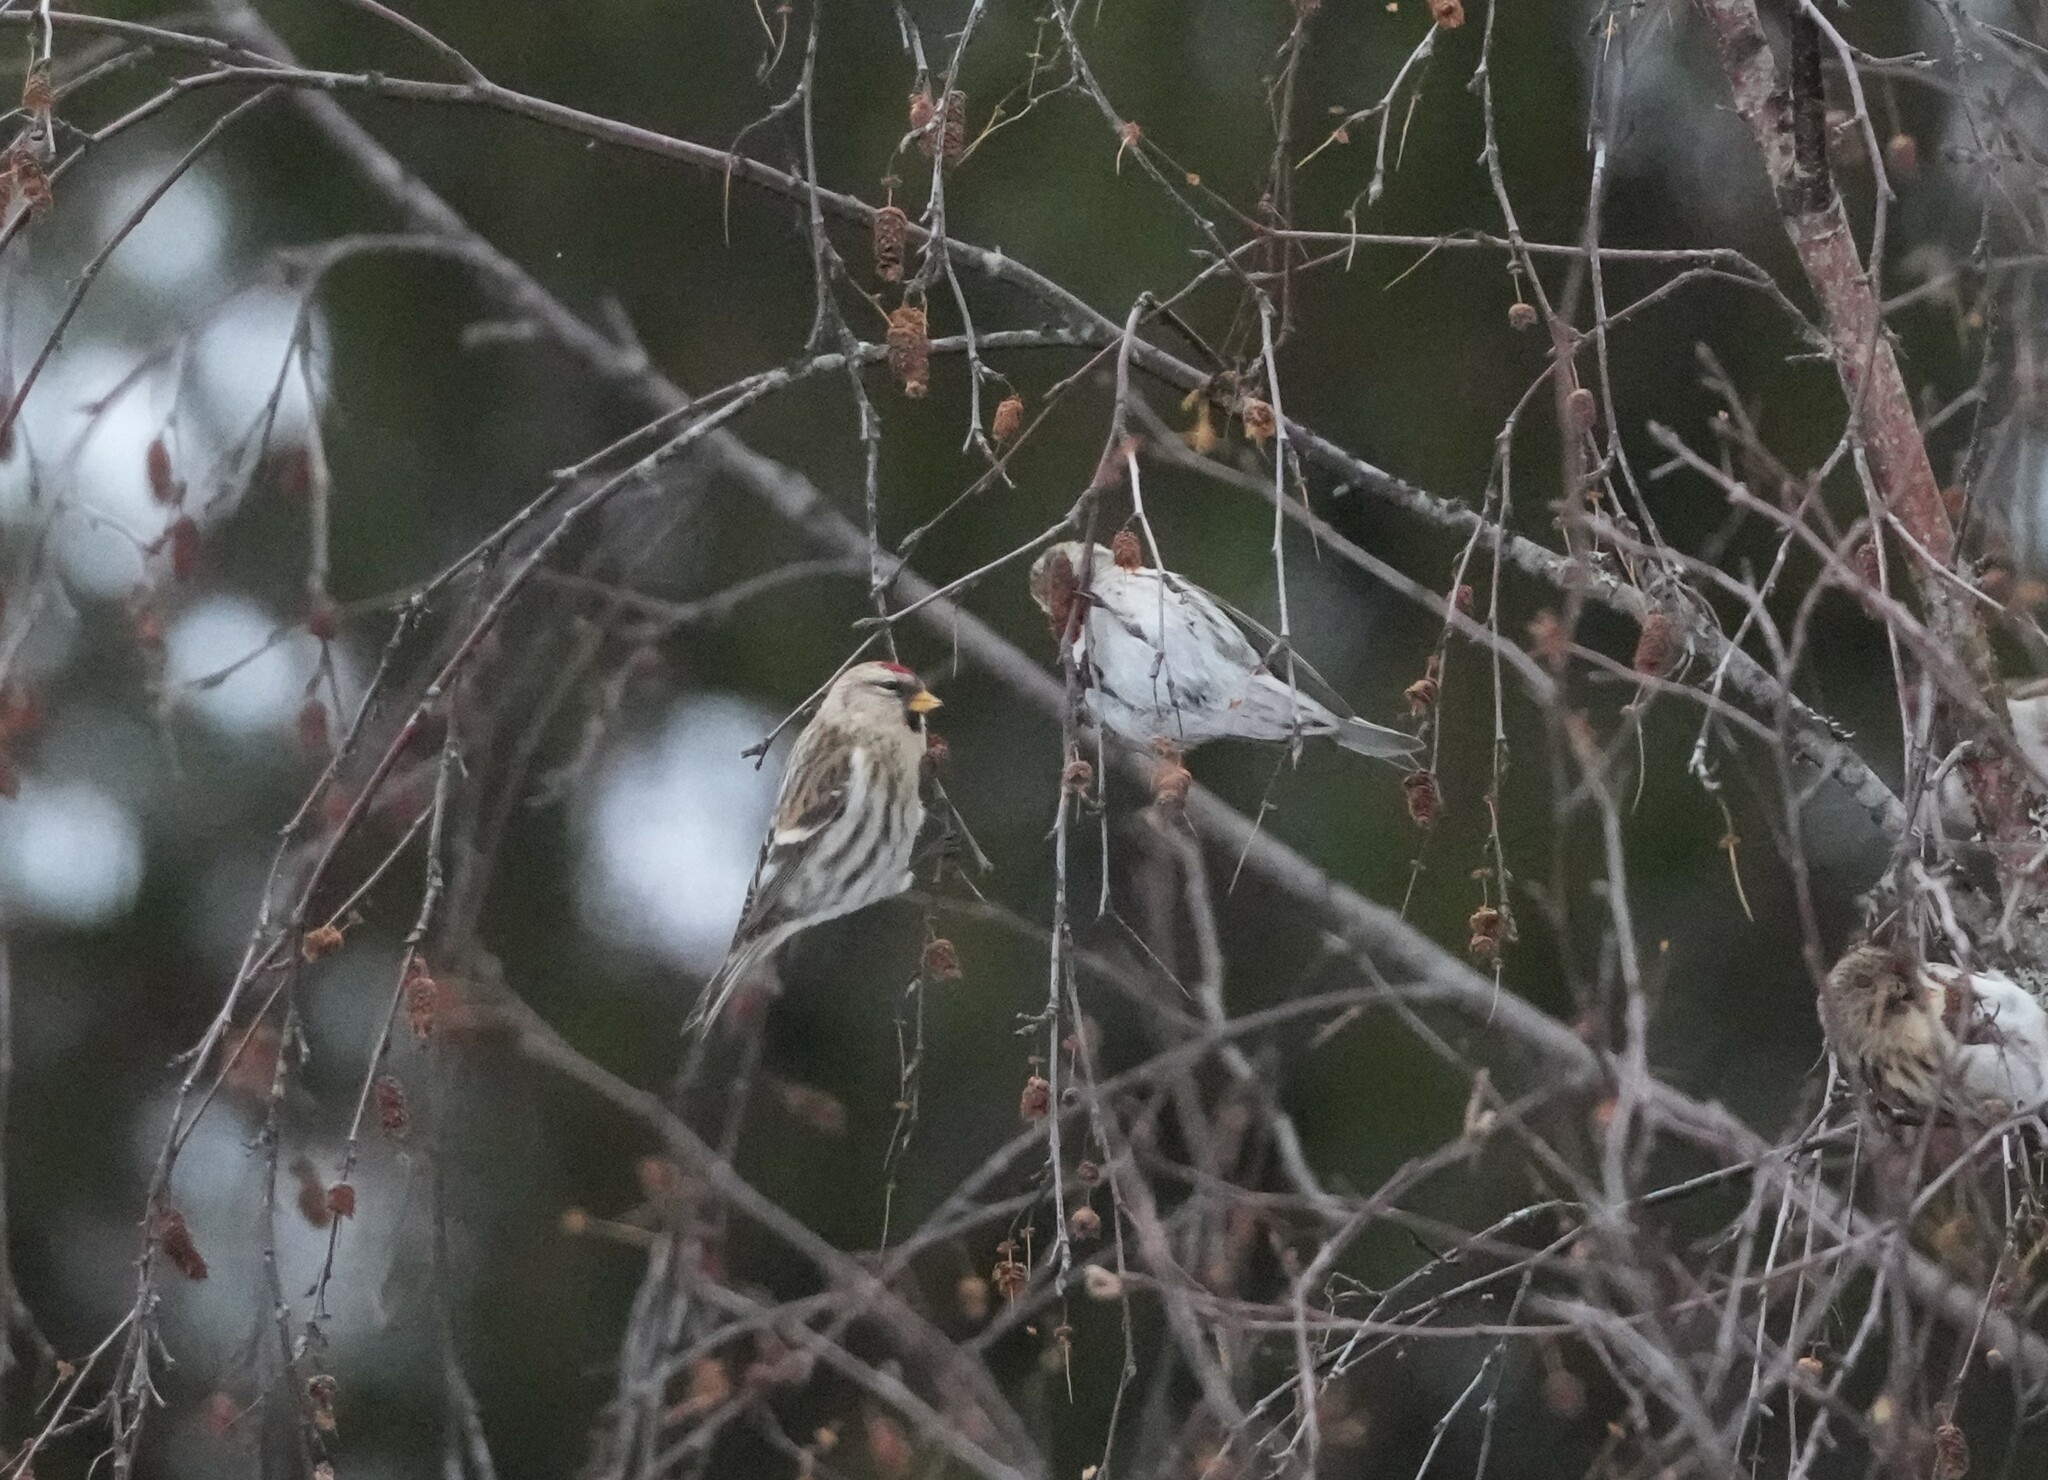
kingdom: Animalia
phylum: Chordata
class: Aves
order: Passeriformes
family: Fringillidae
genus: Acanthis
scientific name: Acanthis flammea
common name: Common redpoll
